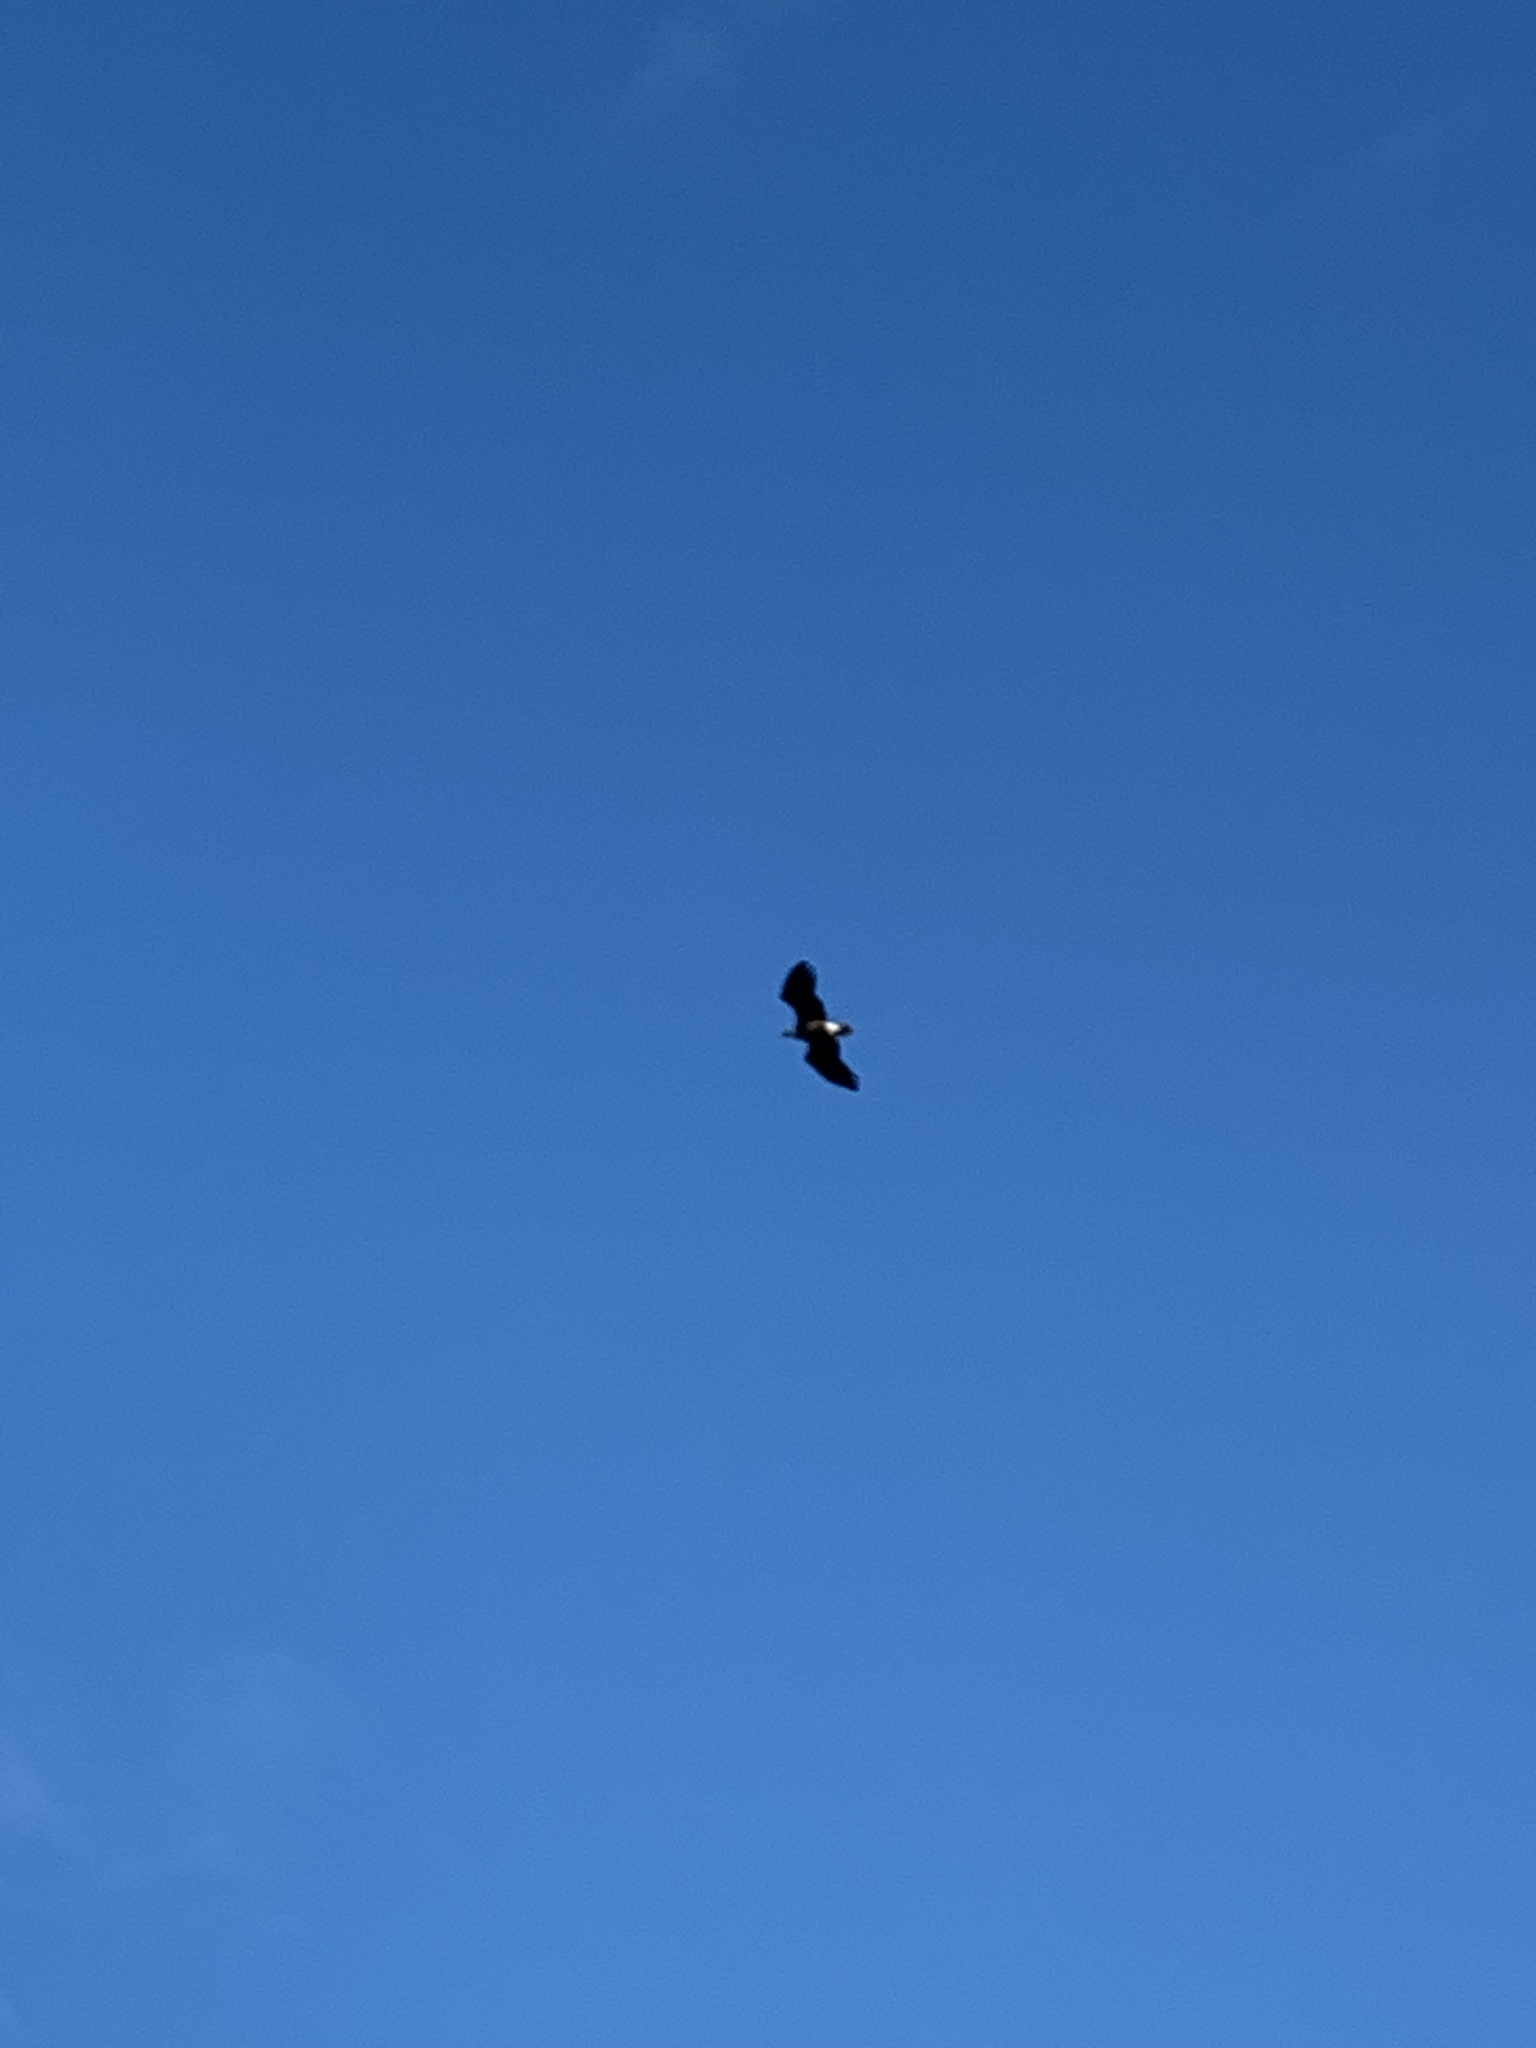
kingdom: Animalia
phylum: Chordata
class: Aves
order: Accipitriformes
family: Accipitridae
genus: Haliaeetus
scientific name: Haliaeetus leucocephalus
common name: Bald eagle
